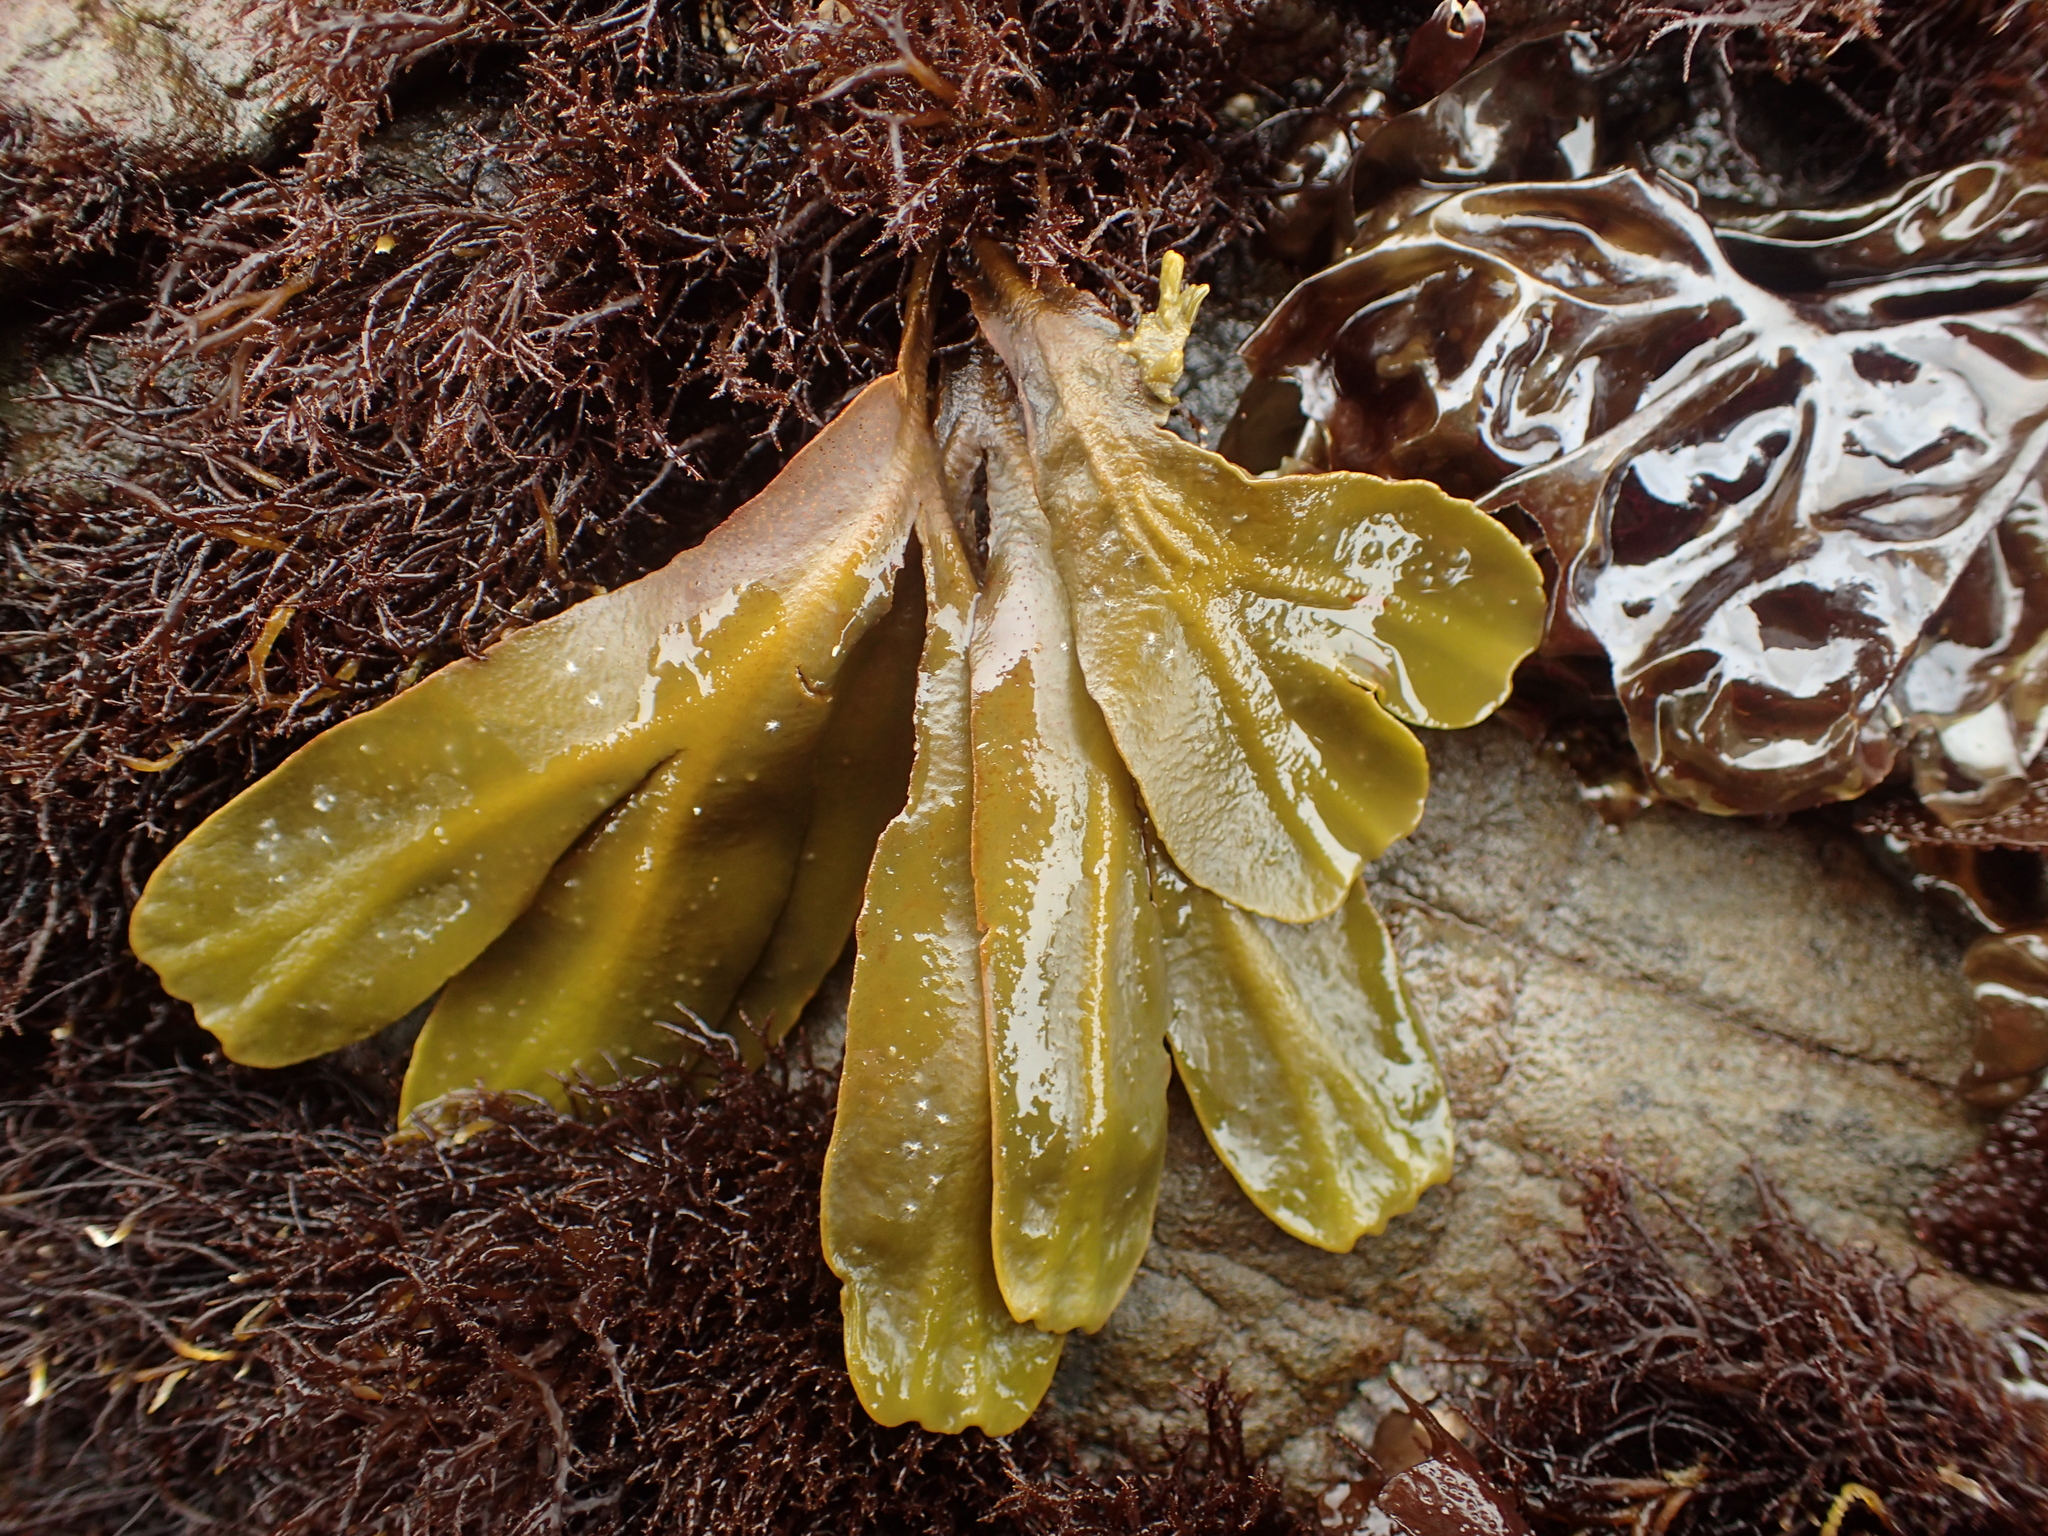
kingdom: Chromista
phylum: Ochrophyta
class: Phaeophyceae
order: Fucales
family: Fucaceae
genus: Fucus
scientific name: Fucus distichus
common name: Rockweed
